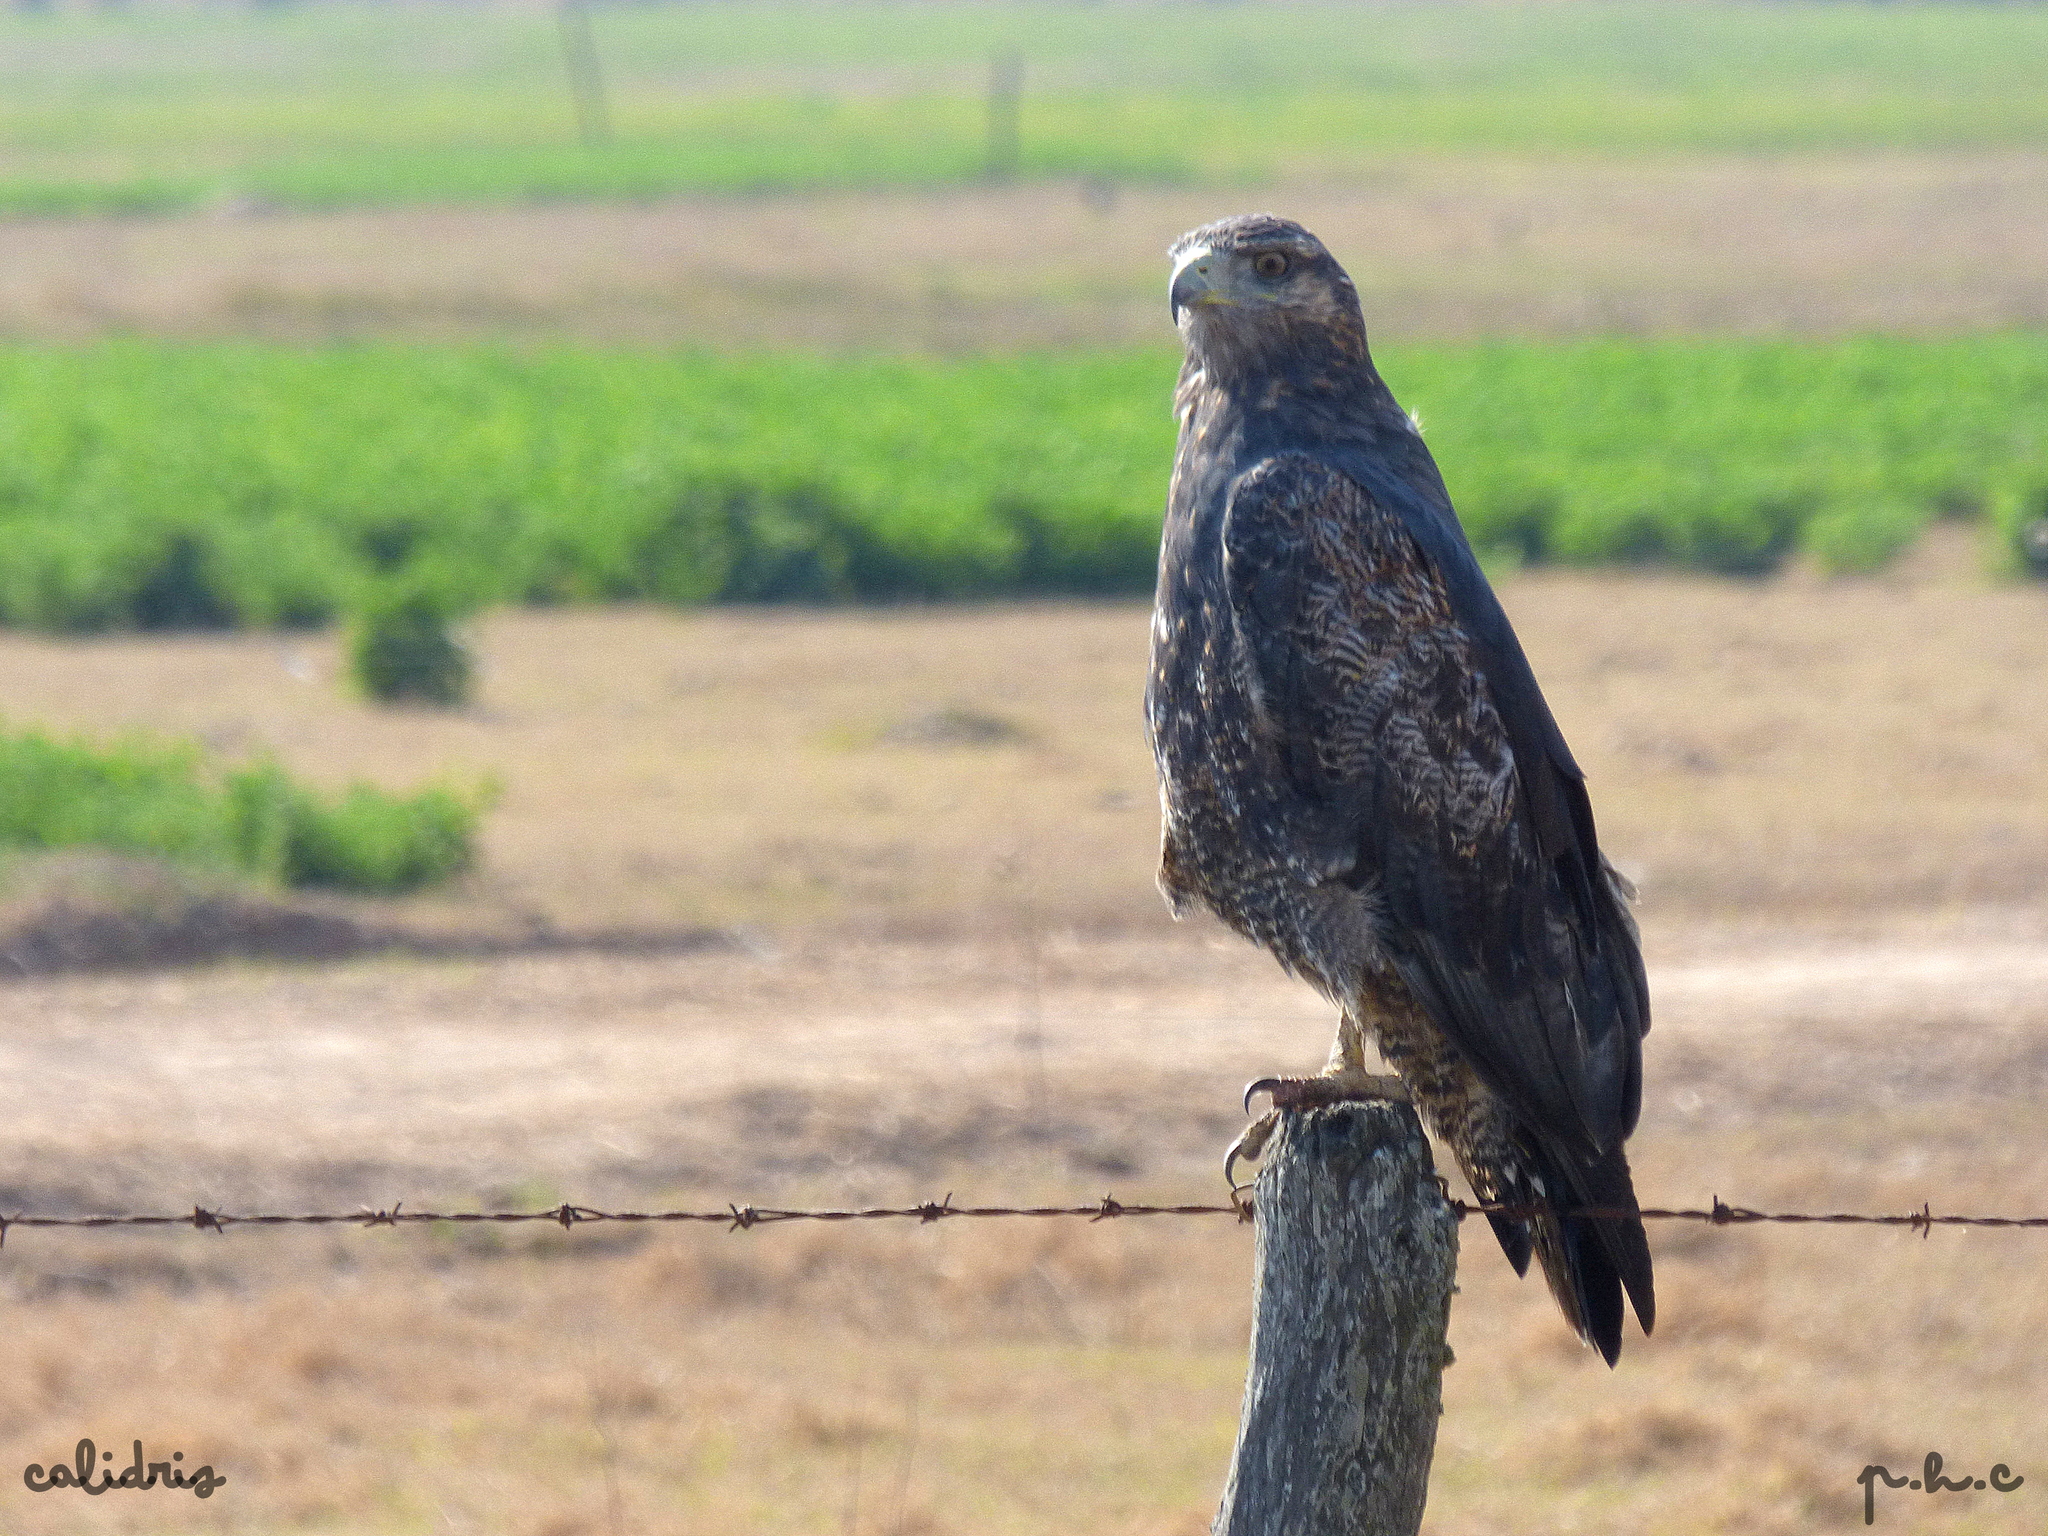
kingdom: Animalia
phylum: Chordata
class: Aves
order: Accipitriformes
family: Accipitridae
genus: Geranoaetus
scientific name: Geranoaetus melanoleucus
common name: Black-chested buzzard-eagle
